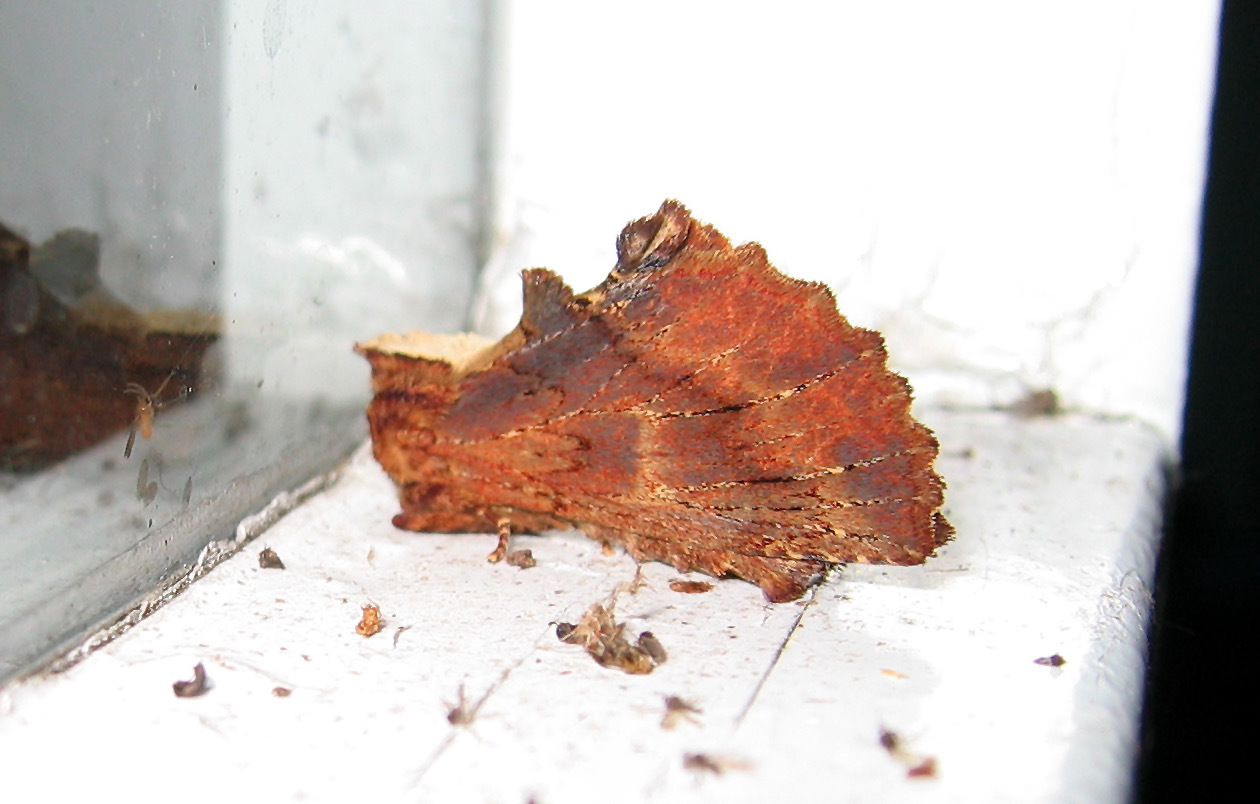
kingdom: Animalia
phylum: Arthropoda
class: Insecta
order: Lepidoptera
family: Notodontidae
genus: Ptilodon
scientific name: Ptilodon capucina
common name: Coxcomb prominent
